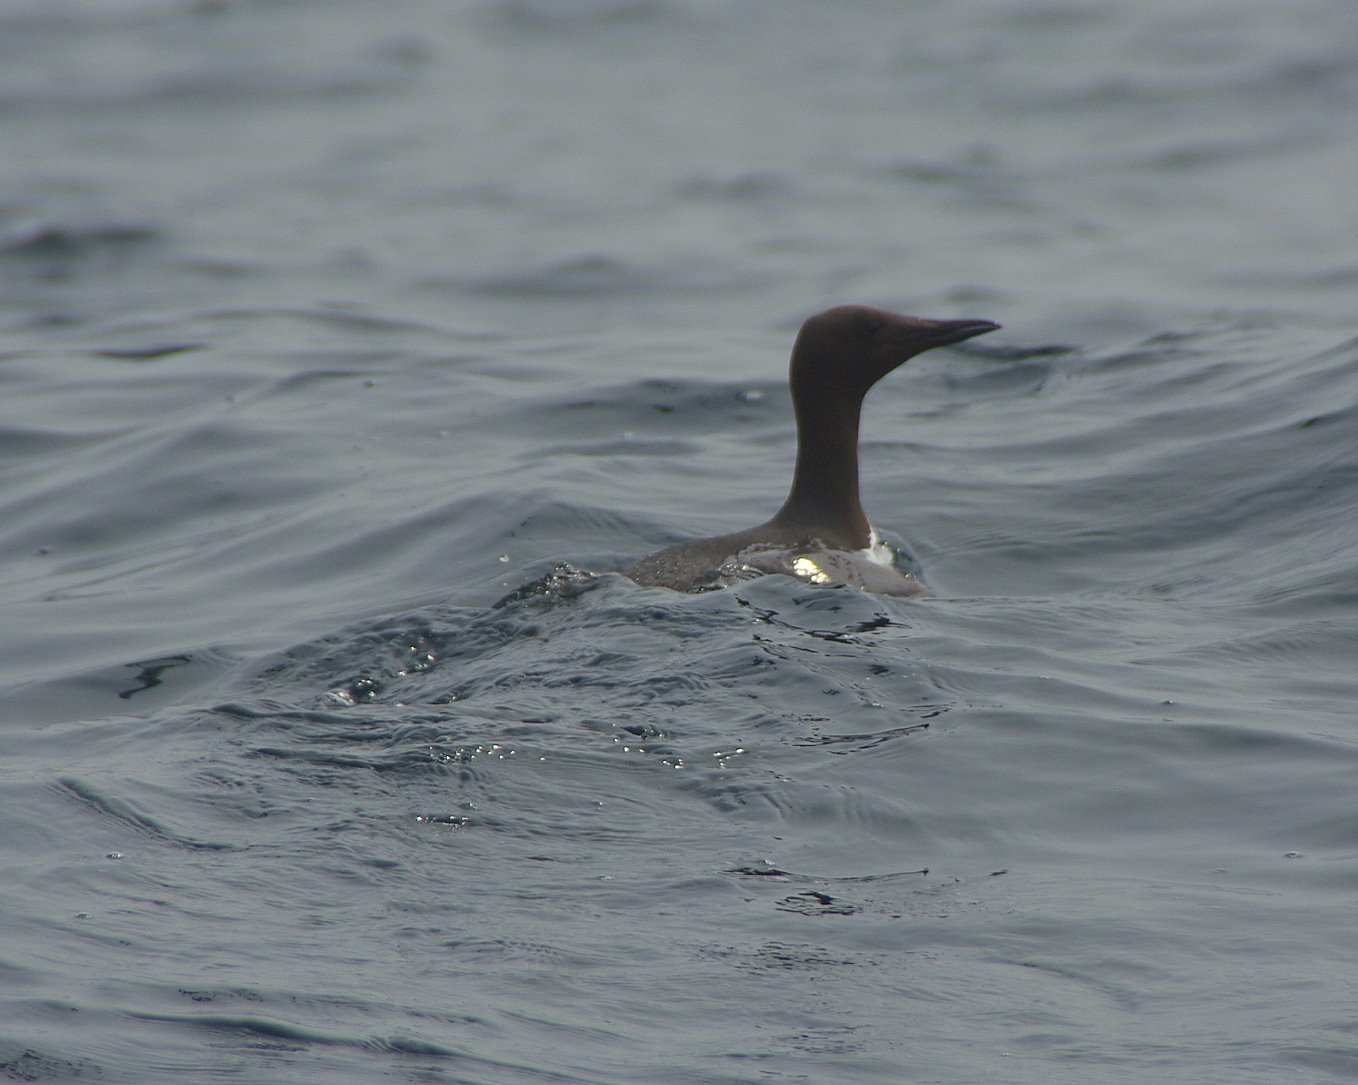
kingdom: Animalia
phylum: Chordata
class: Aves
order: Charadriiformes
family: Alcidae
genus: Uria
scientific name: Uria aalge
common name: Common murre
